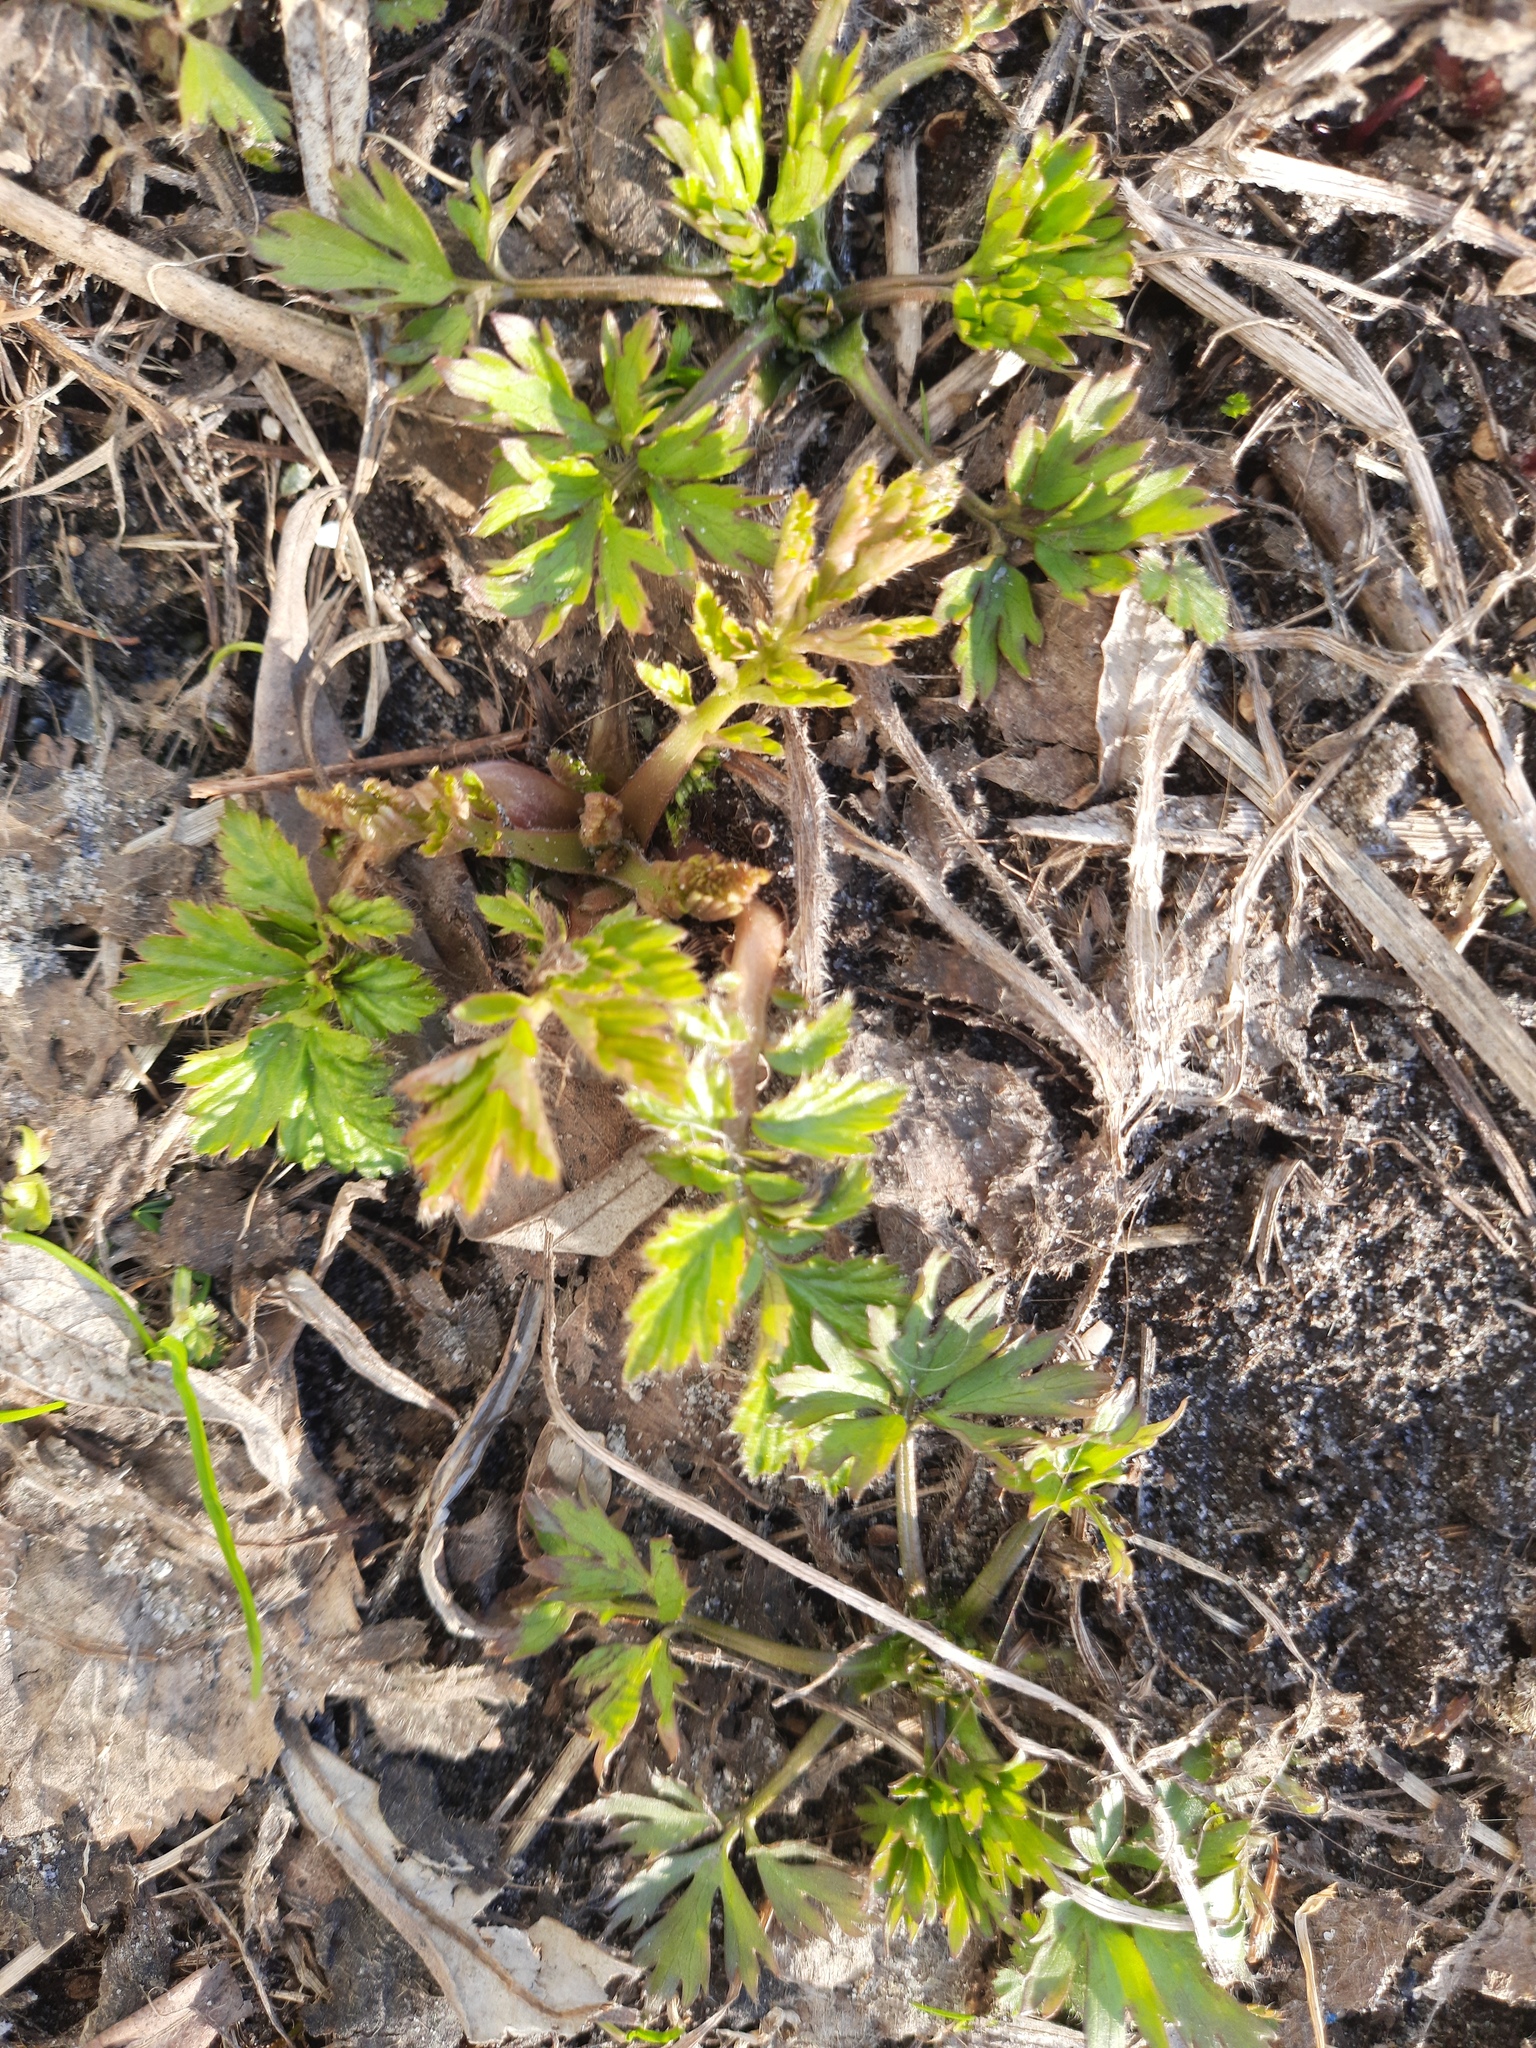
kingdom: Plantae
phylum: Tracheophyta
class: Magnoliopsida
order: Rosales
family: Rosaceae
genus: Potentilla
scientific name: Potentilla supina
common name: Prostrate cinquefoil
